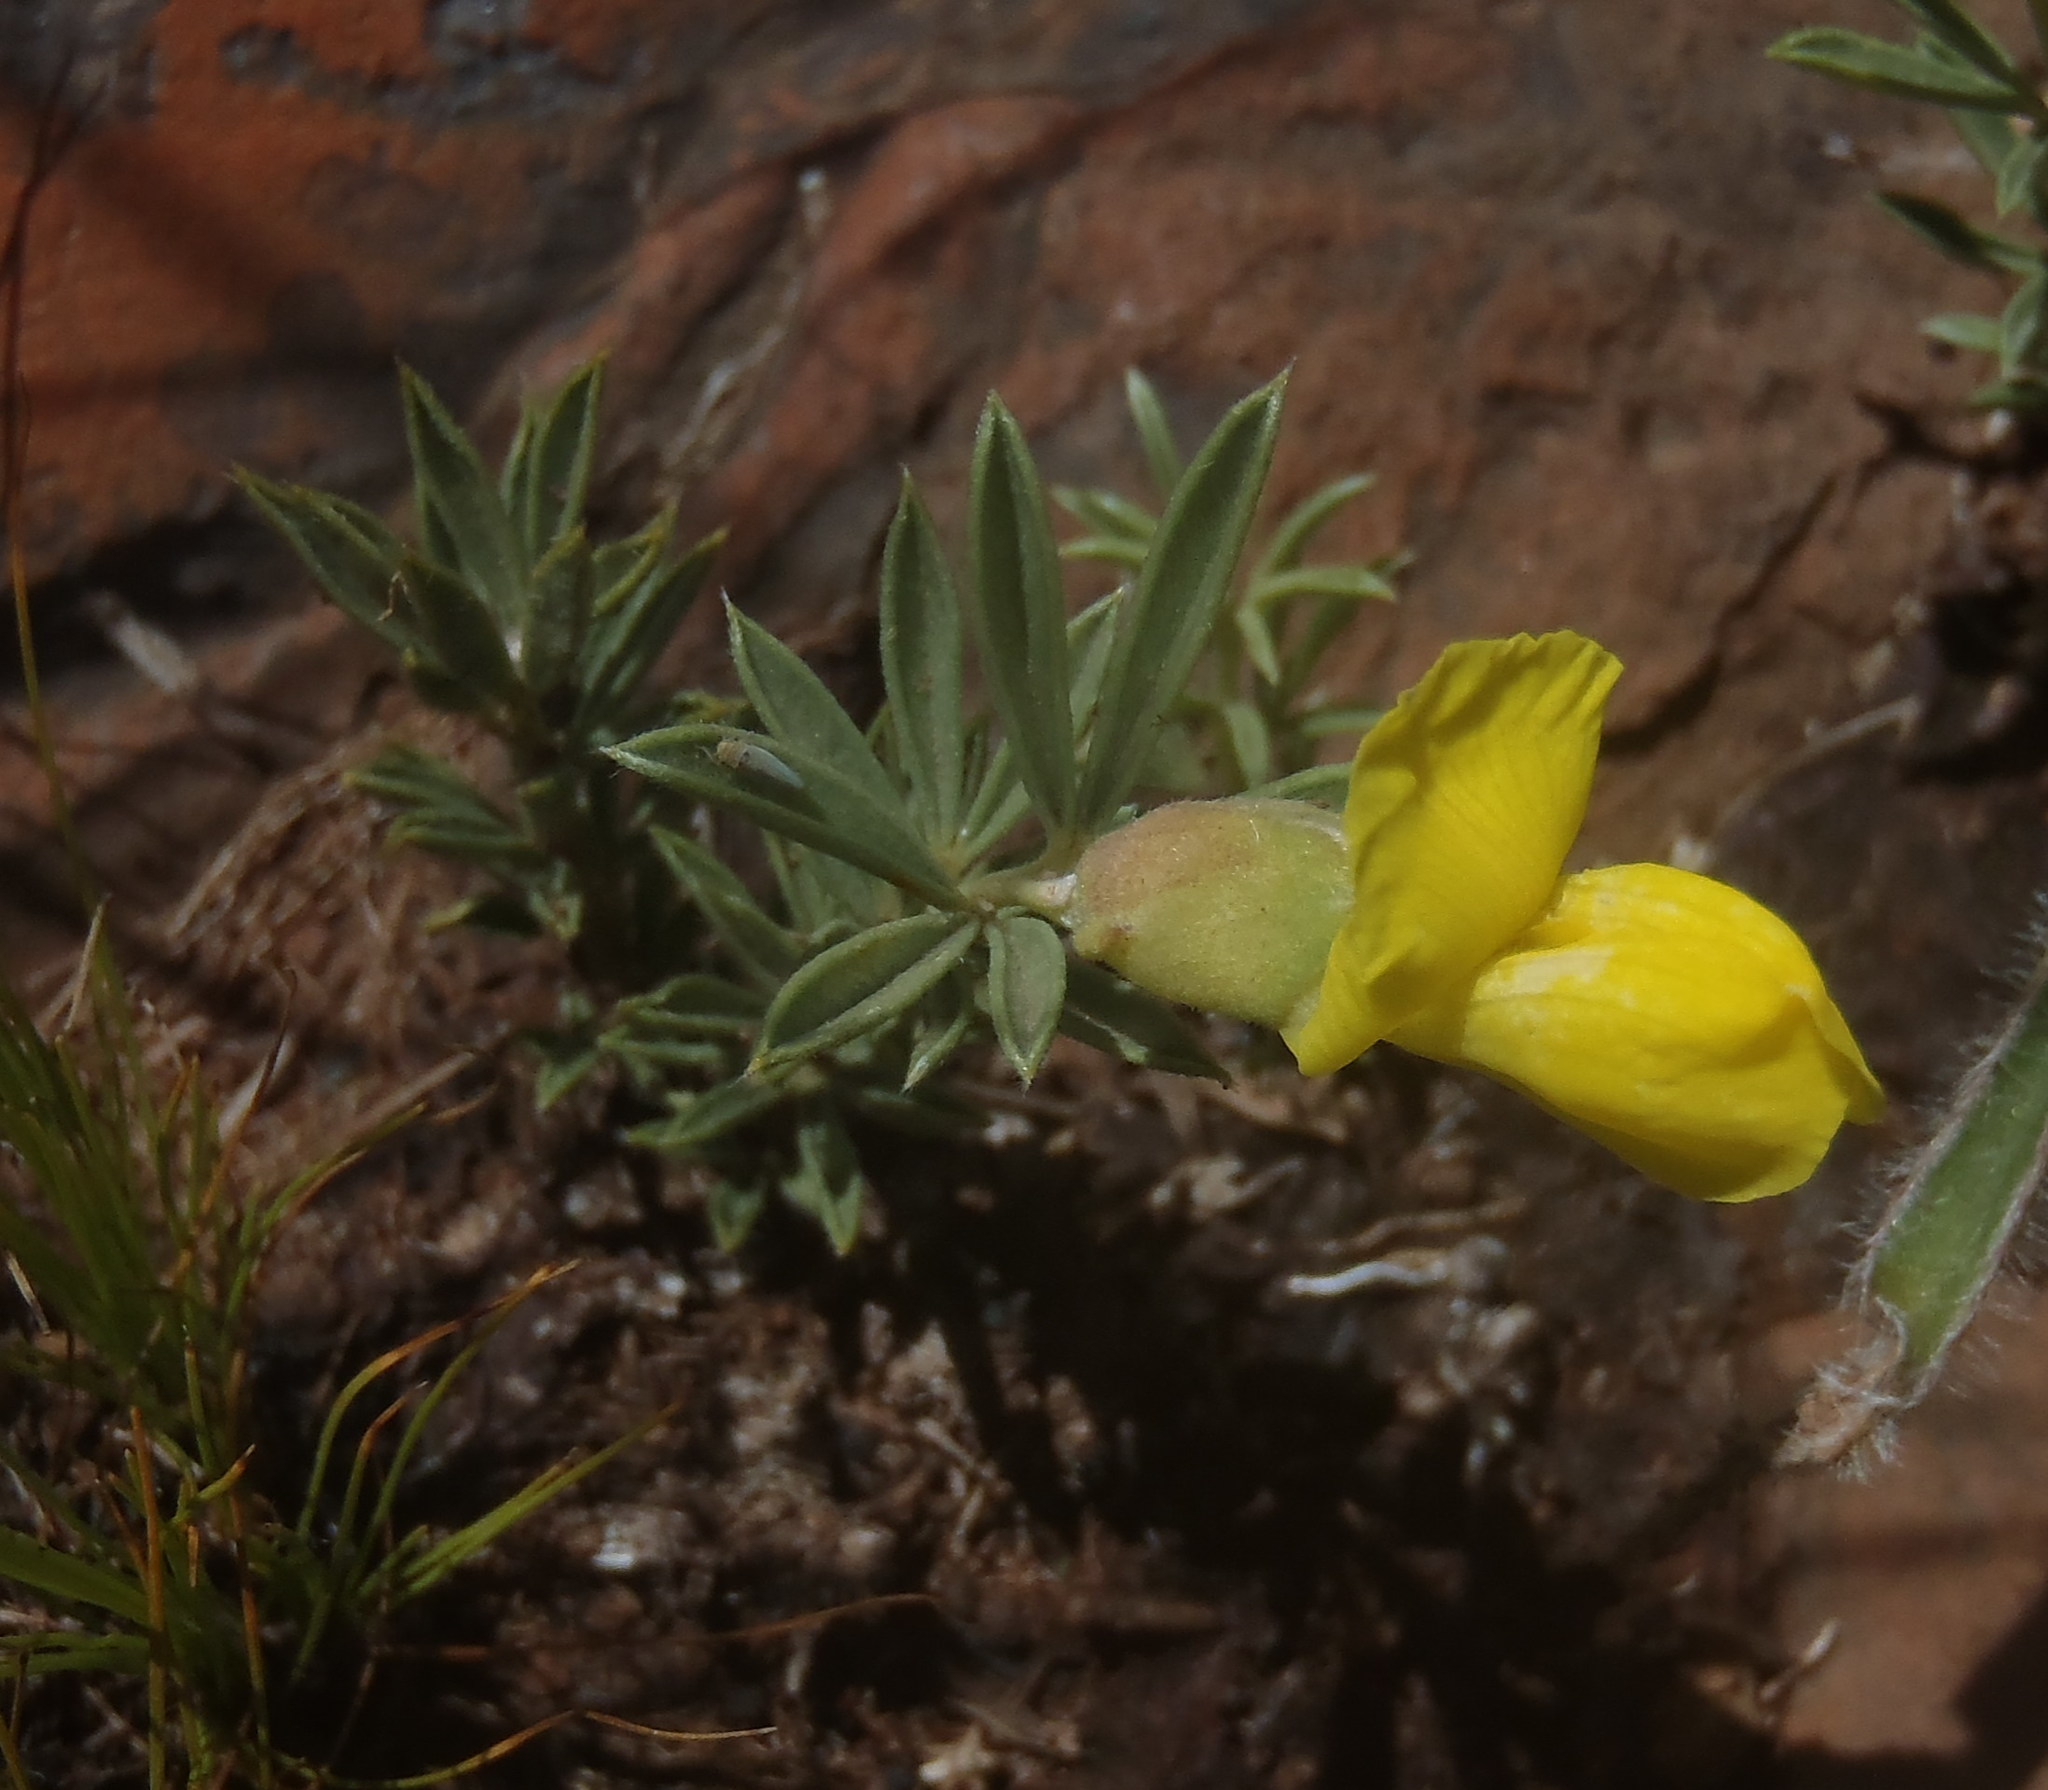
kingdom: Plantae
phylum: Tracheophyta
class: Magnoliopsida
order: Fabales
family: Fabaceae
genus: Pearsonia
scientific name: Pearsonia sessilifolia
